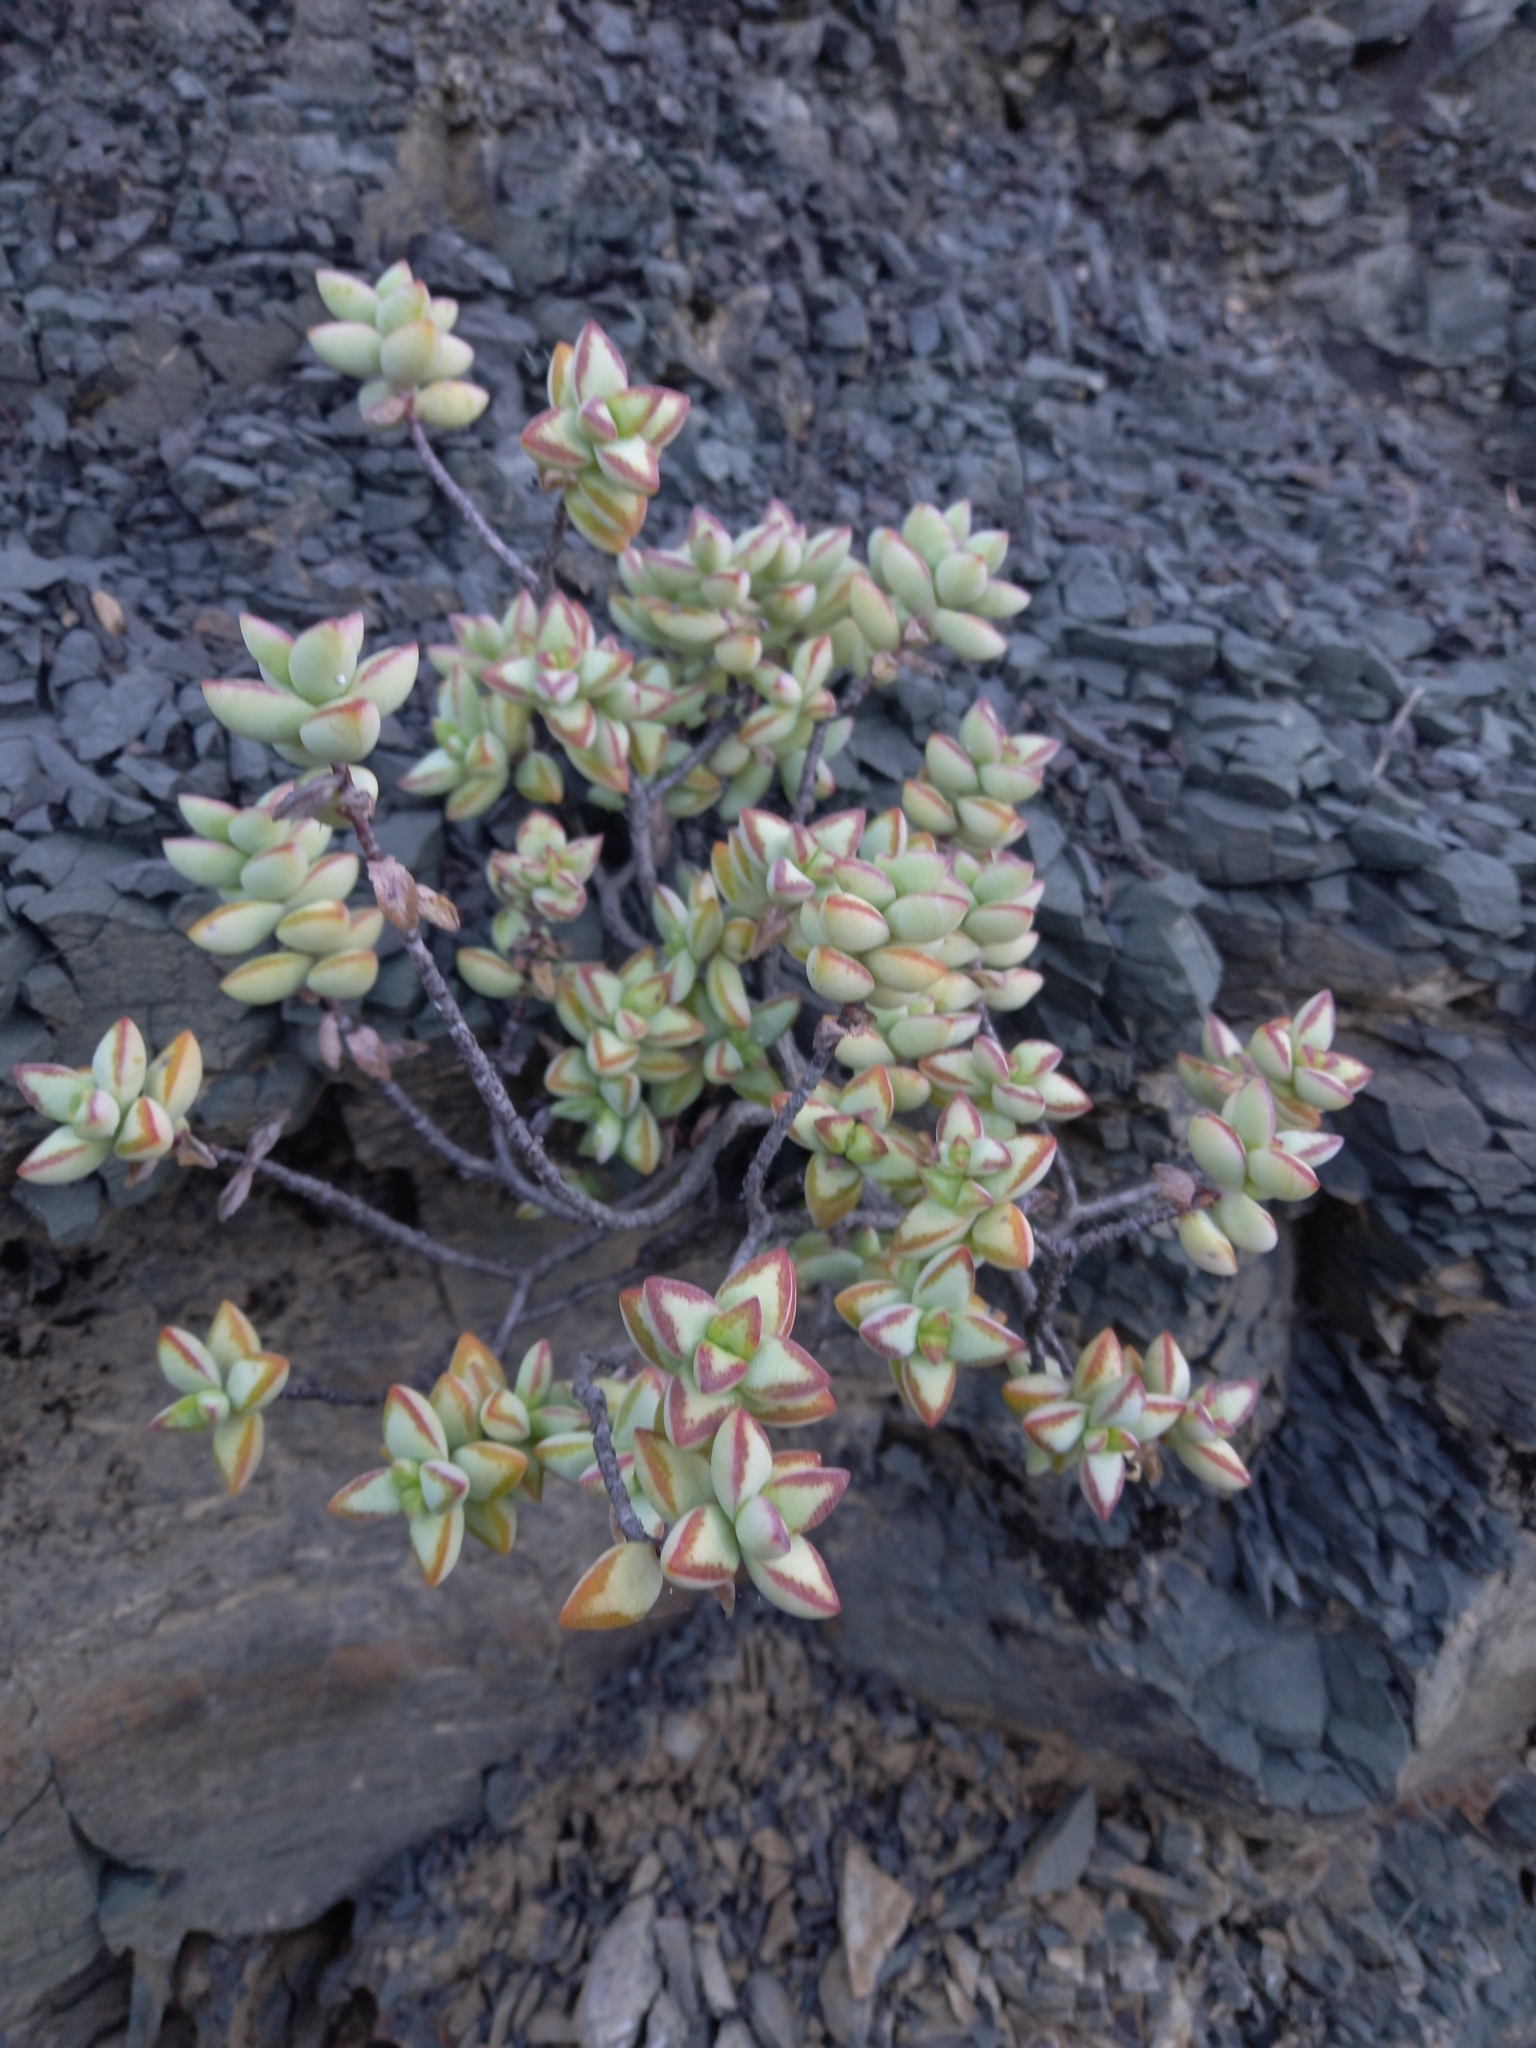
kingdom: Plantae
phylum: Tracheophyta
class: Magnoliopsida
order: Saxifragales
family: Crassulaceae
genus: Crassula
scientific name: Crassula rupestris
